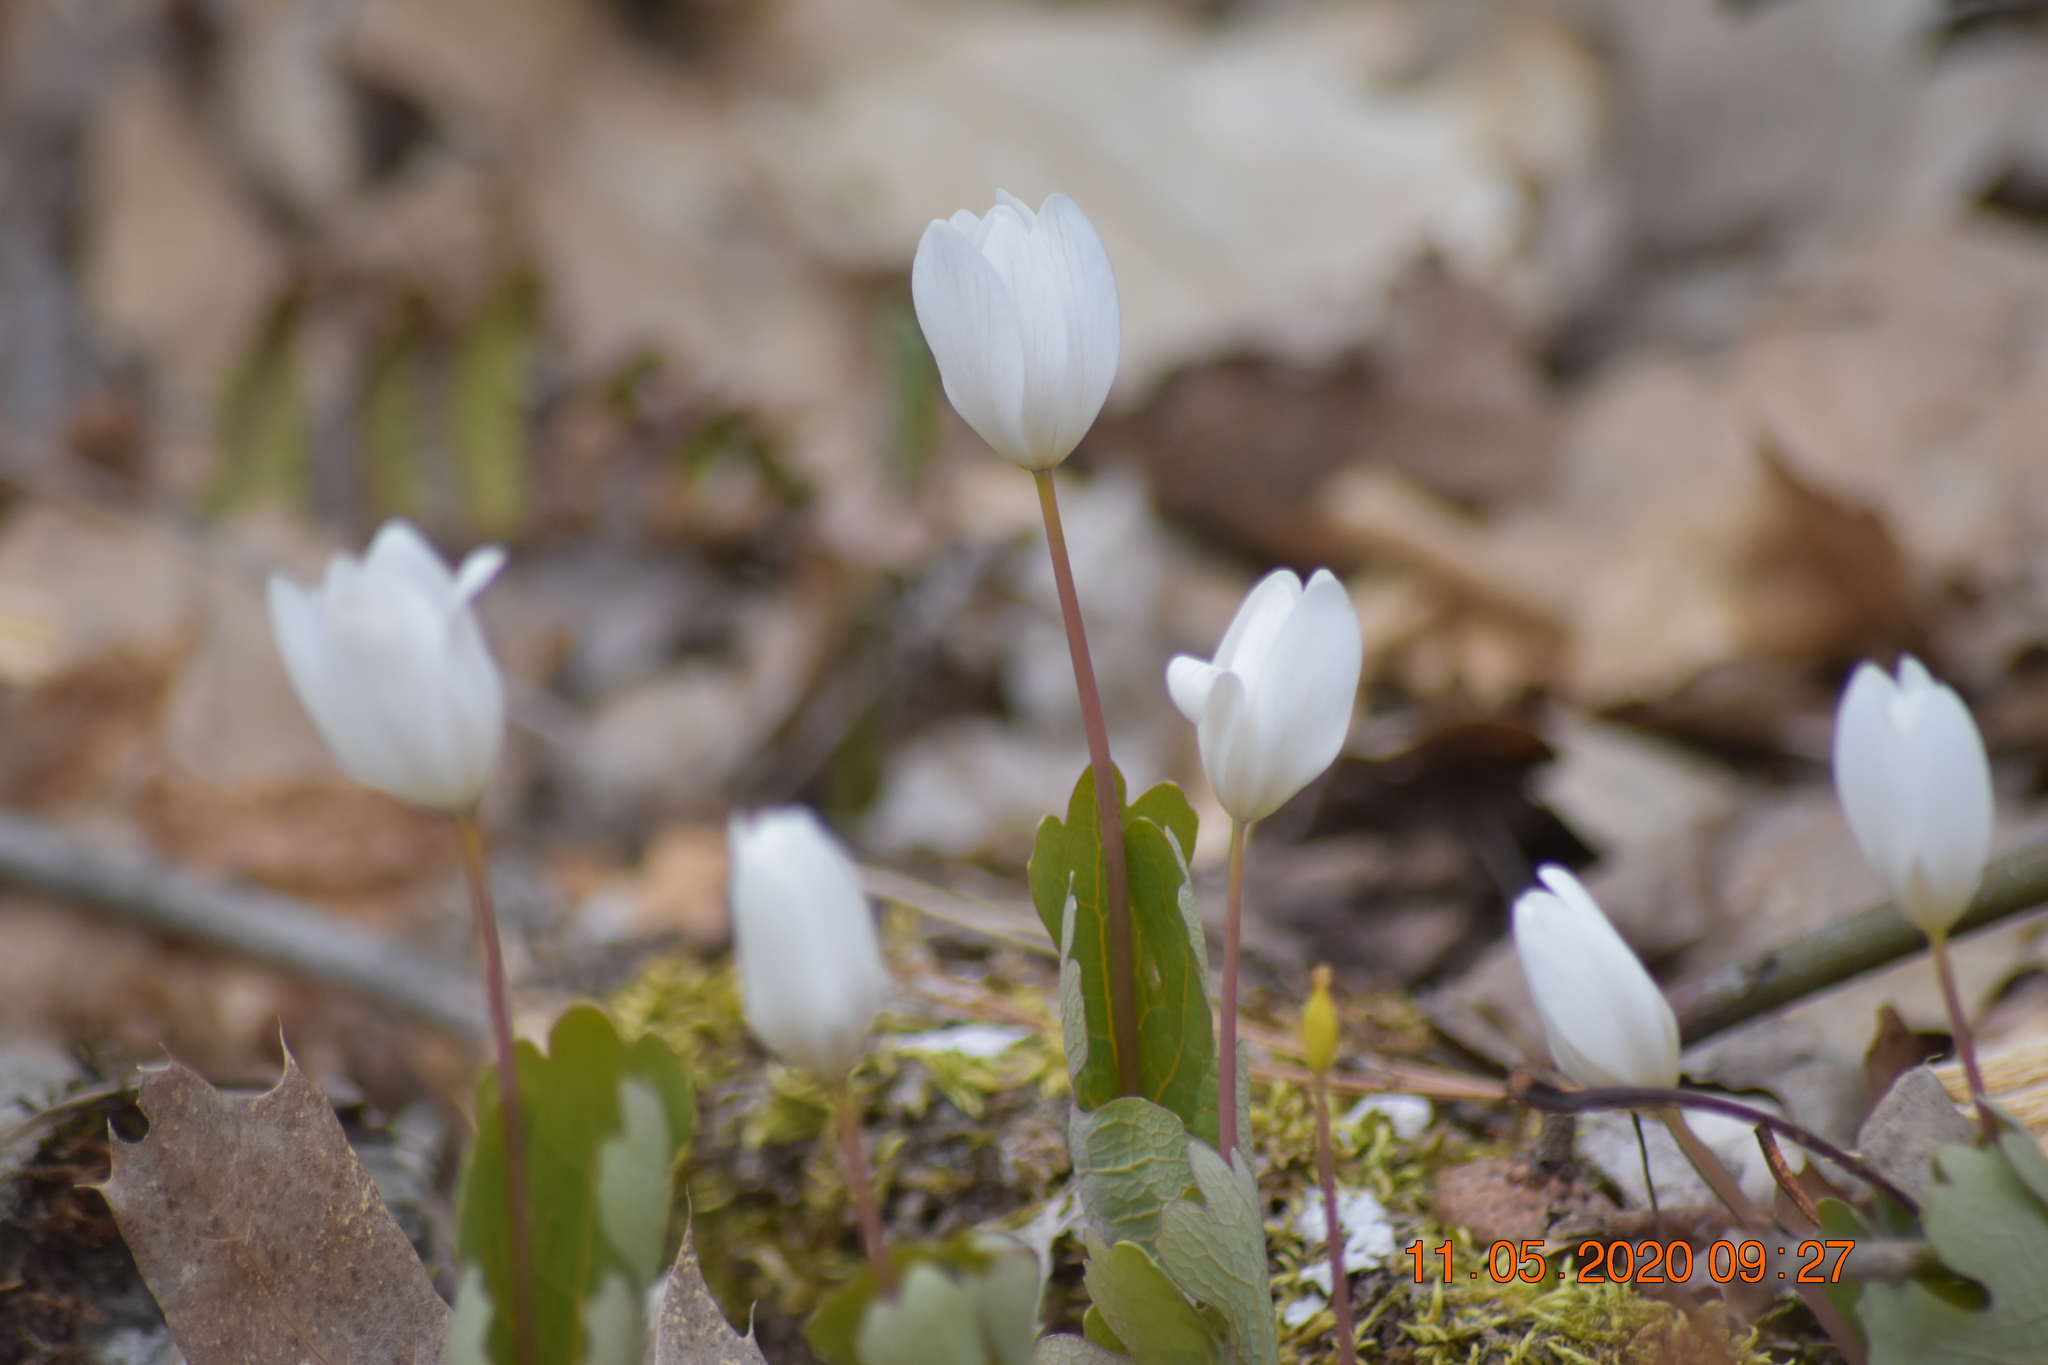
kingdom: Plantae
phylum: Tracheophyta
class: Magnoliopsida
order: Ranunculales
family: Papaveraceae
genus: Sanguinaria
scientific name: Sanguinaria canadensis
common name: Bloodroot
